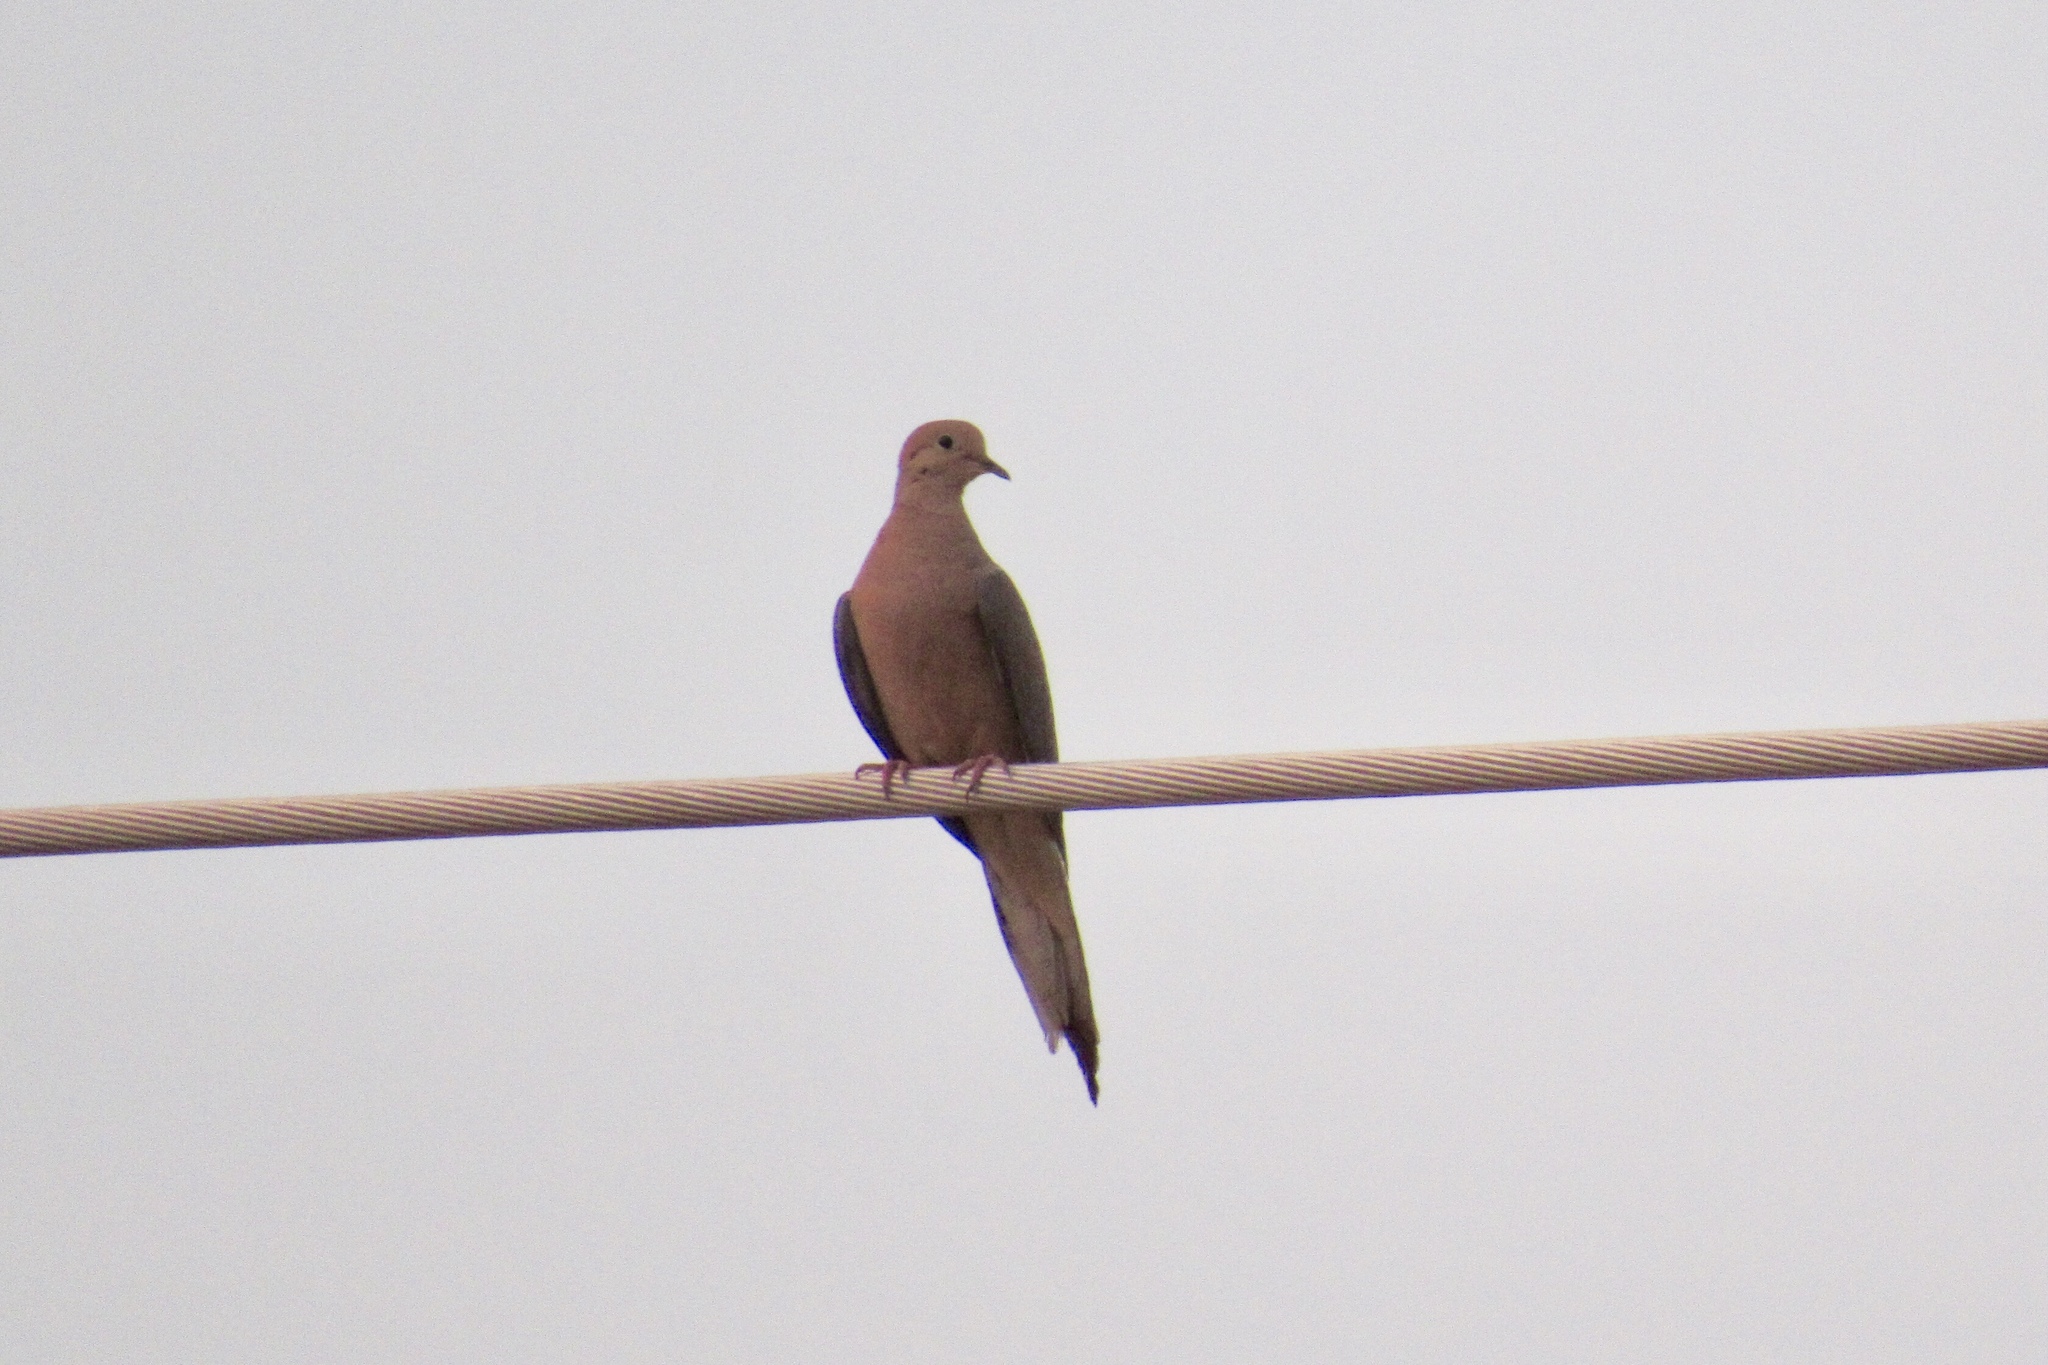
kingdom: Animalia
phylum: Chordata
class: Aves
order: Columbiformes
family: Columbidae
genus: Zenaida
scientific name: Zenaida macroura
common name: Mourning dove
